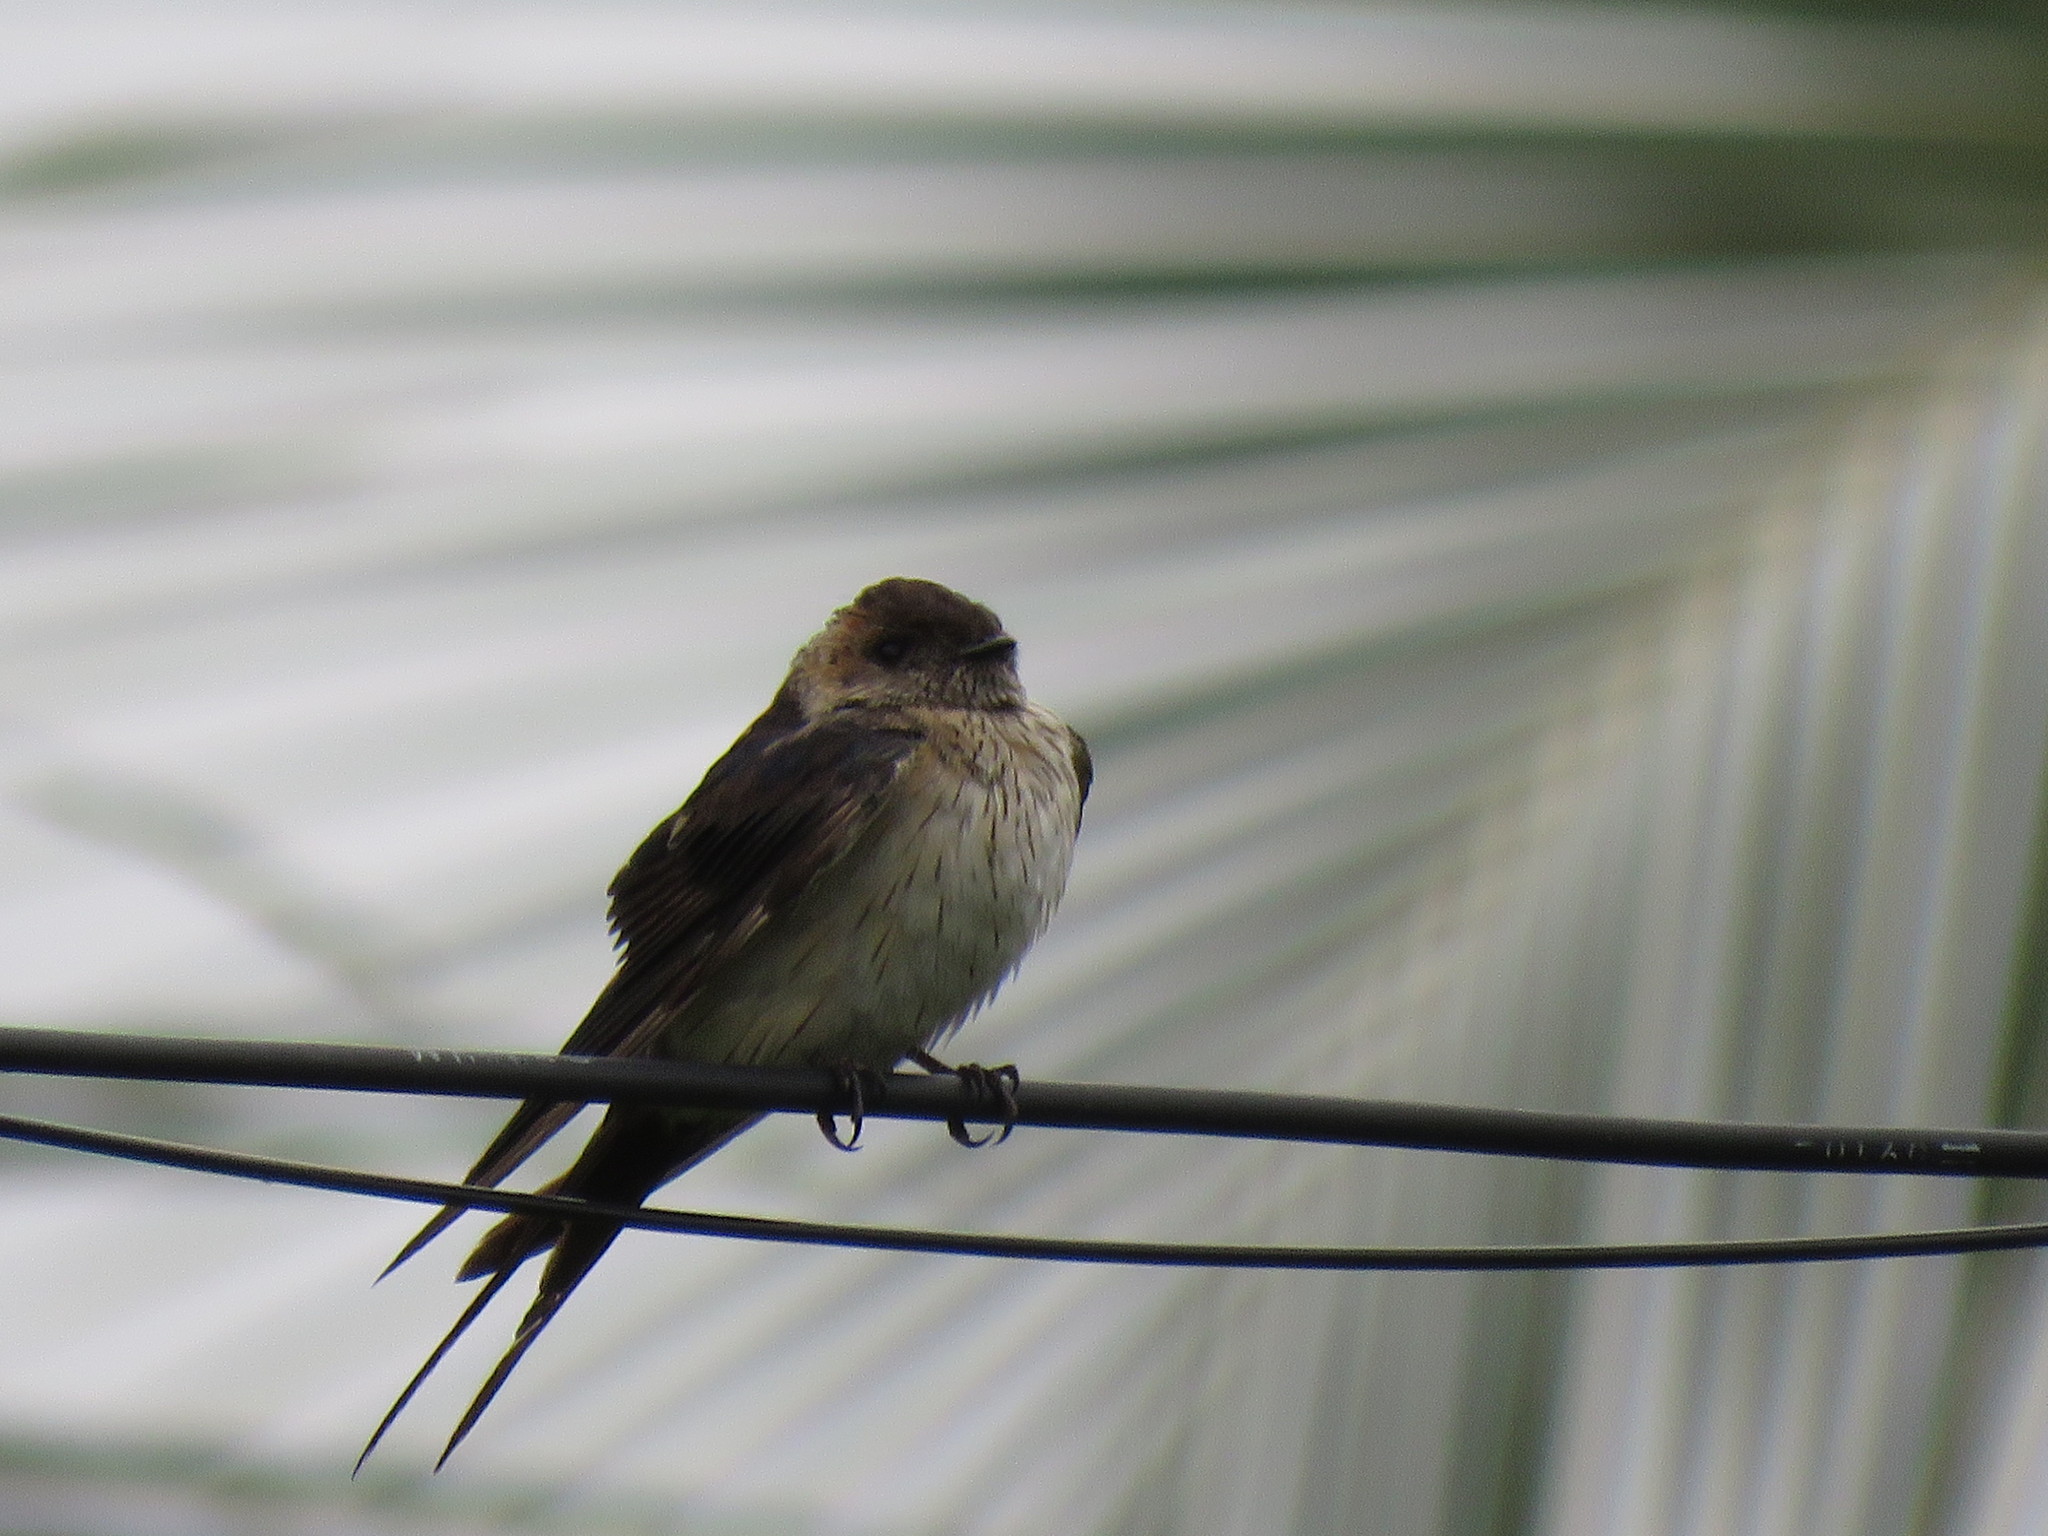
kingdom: Animalia
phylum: Chordata
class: Aves
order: Passeriformes
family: Hirundinidae
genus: Cecropis
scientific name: Cecropis daurica
